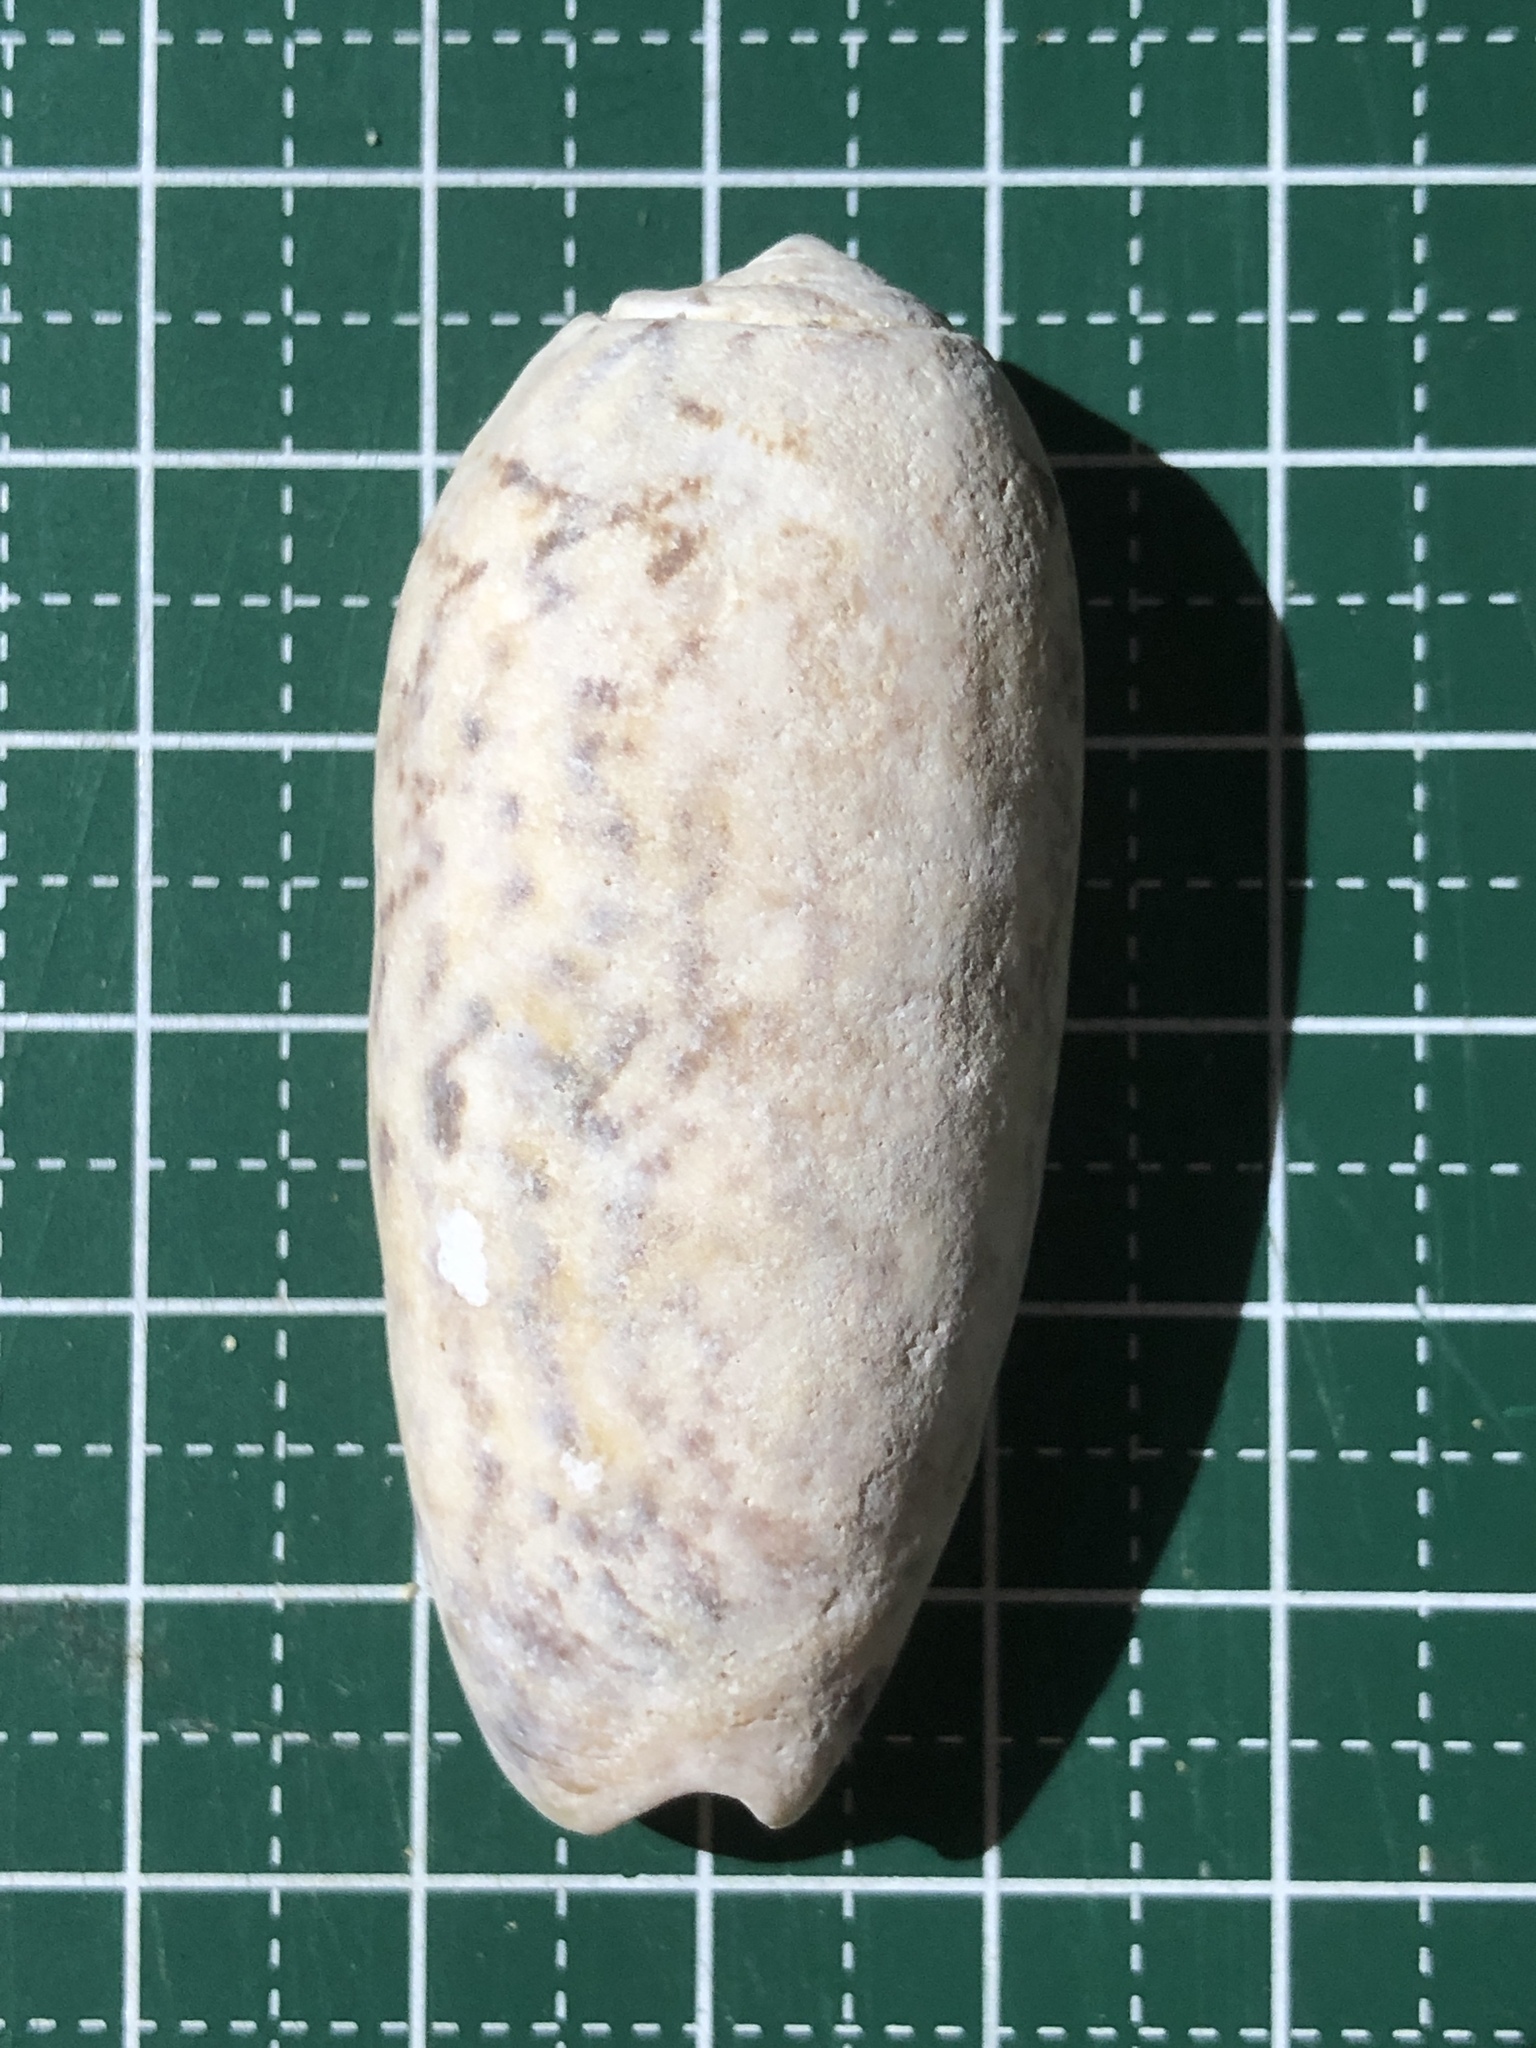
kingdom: Animalia
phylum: Mollusca
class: Gastropoda
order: Neogastropoda
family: Olividae
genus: Oliva
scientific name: Oliva miniacea
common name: Pacific common olive
